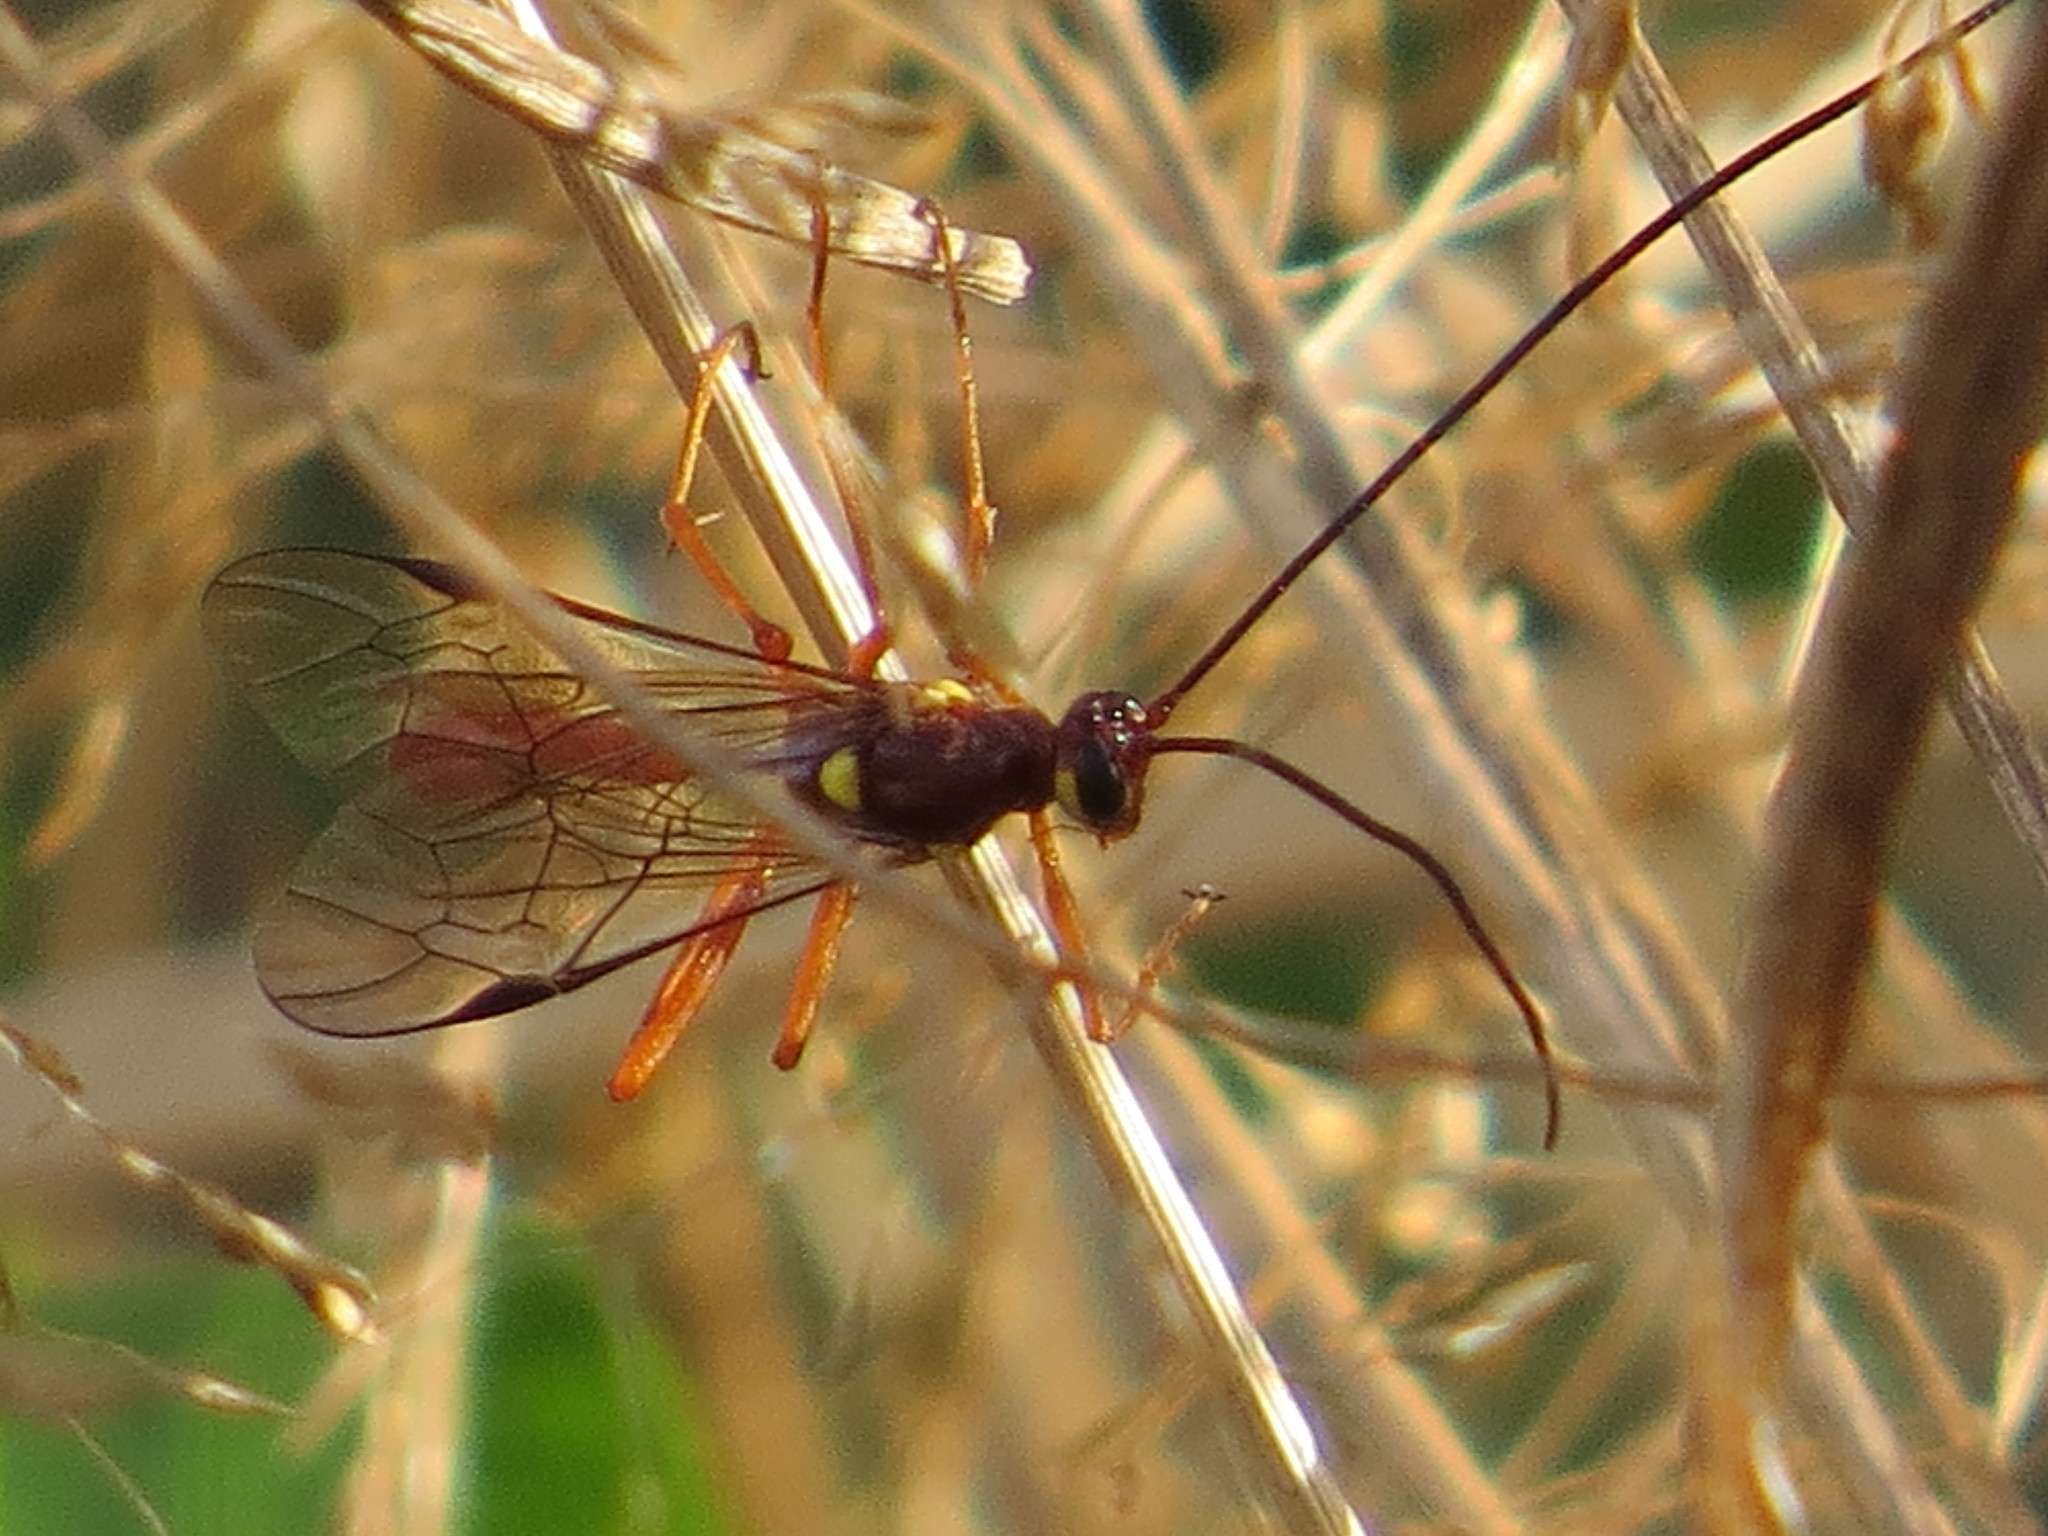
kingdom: Animalia
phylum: Arthropoda
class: Insecta
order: Hymenoptera
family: Ichneumonidae
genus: Ophion
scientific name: Ophion peregrinus
